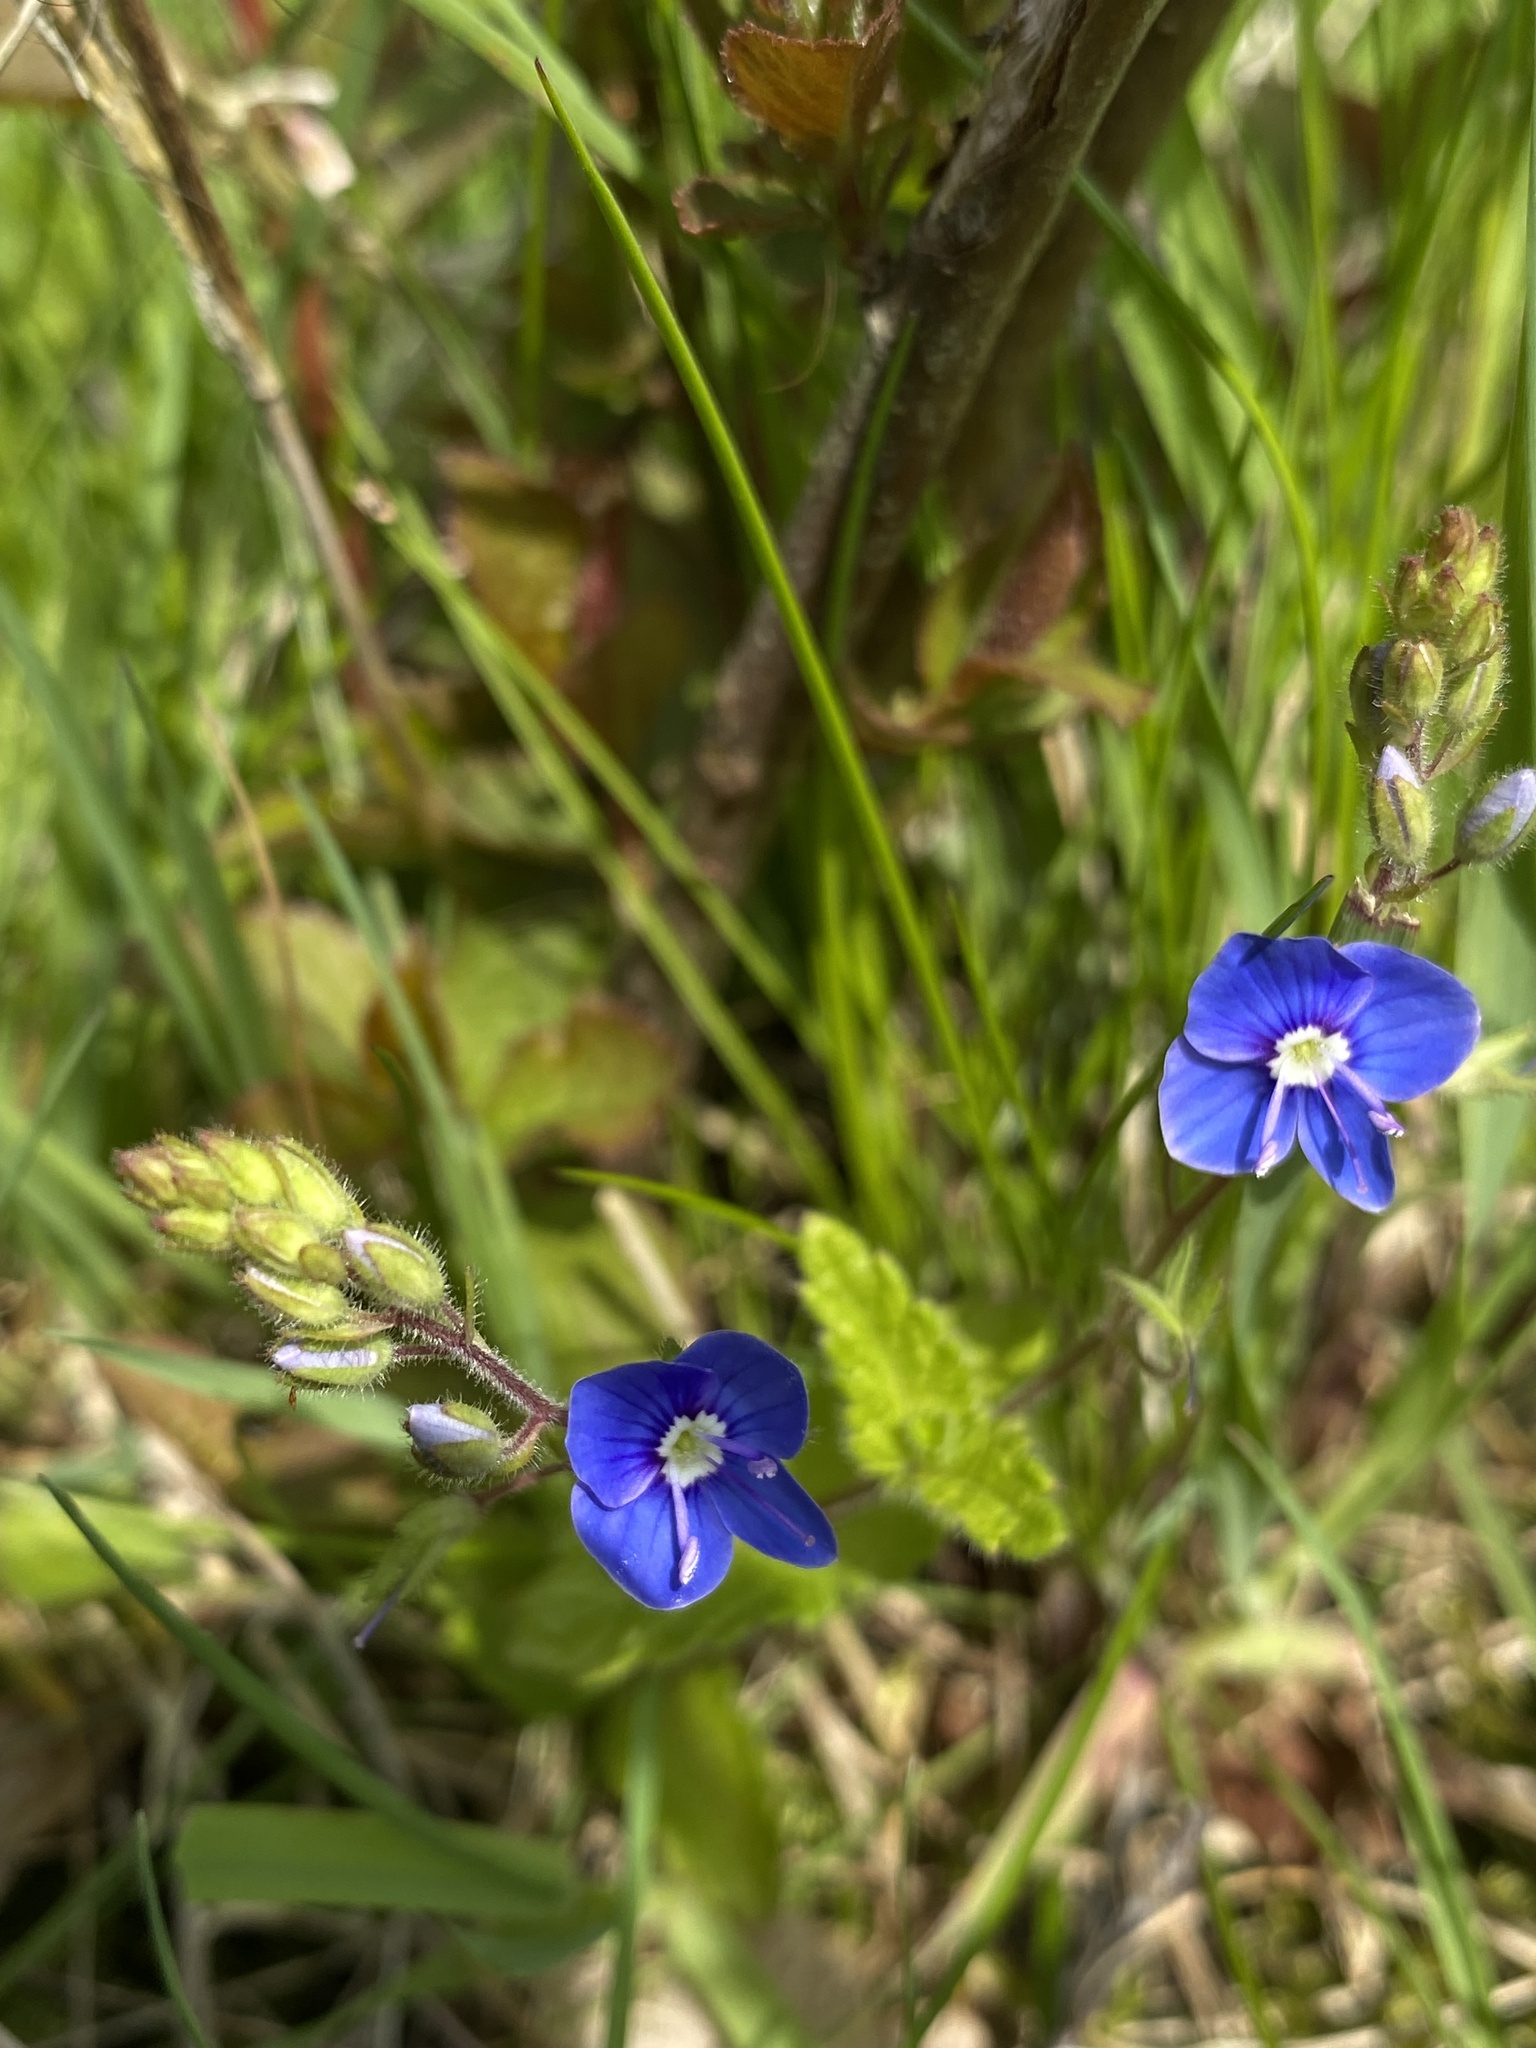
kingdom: Plantae
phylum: Tracheophyta
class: Magnoliopsida
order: Lamiales
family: Plantaginaceae
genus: Veronica
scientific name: Veronica chamaedrys
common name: Germander speedwell
